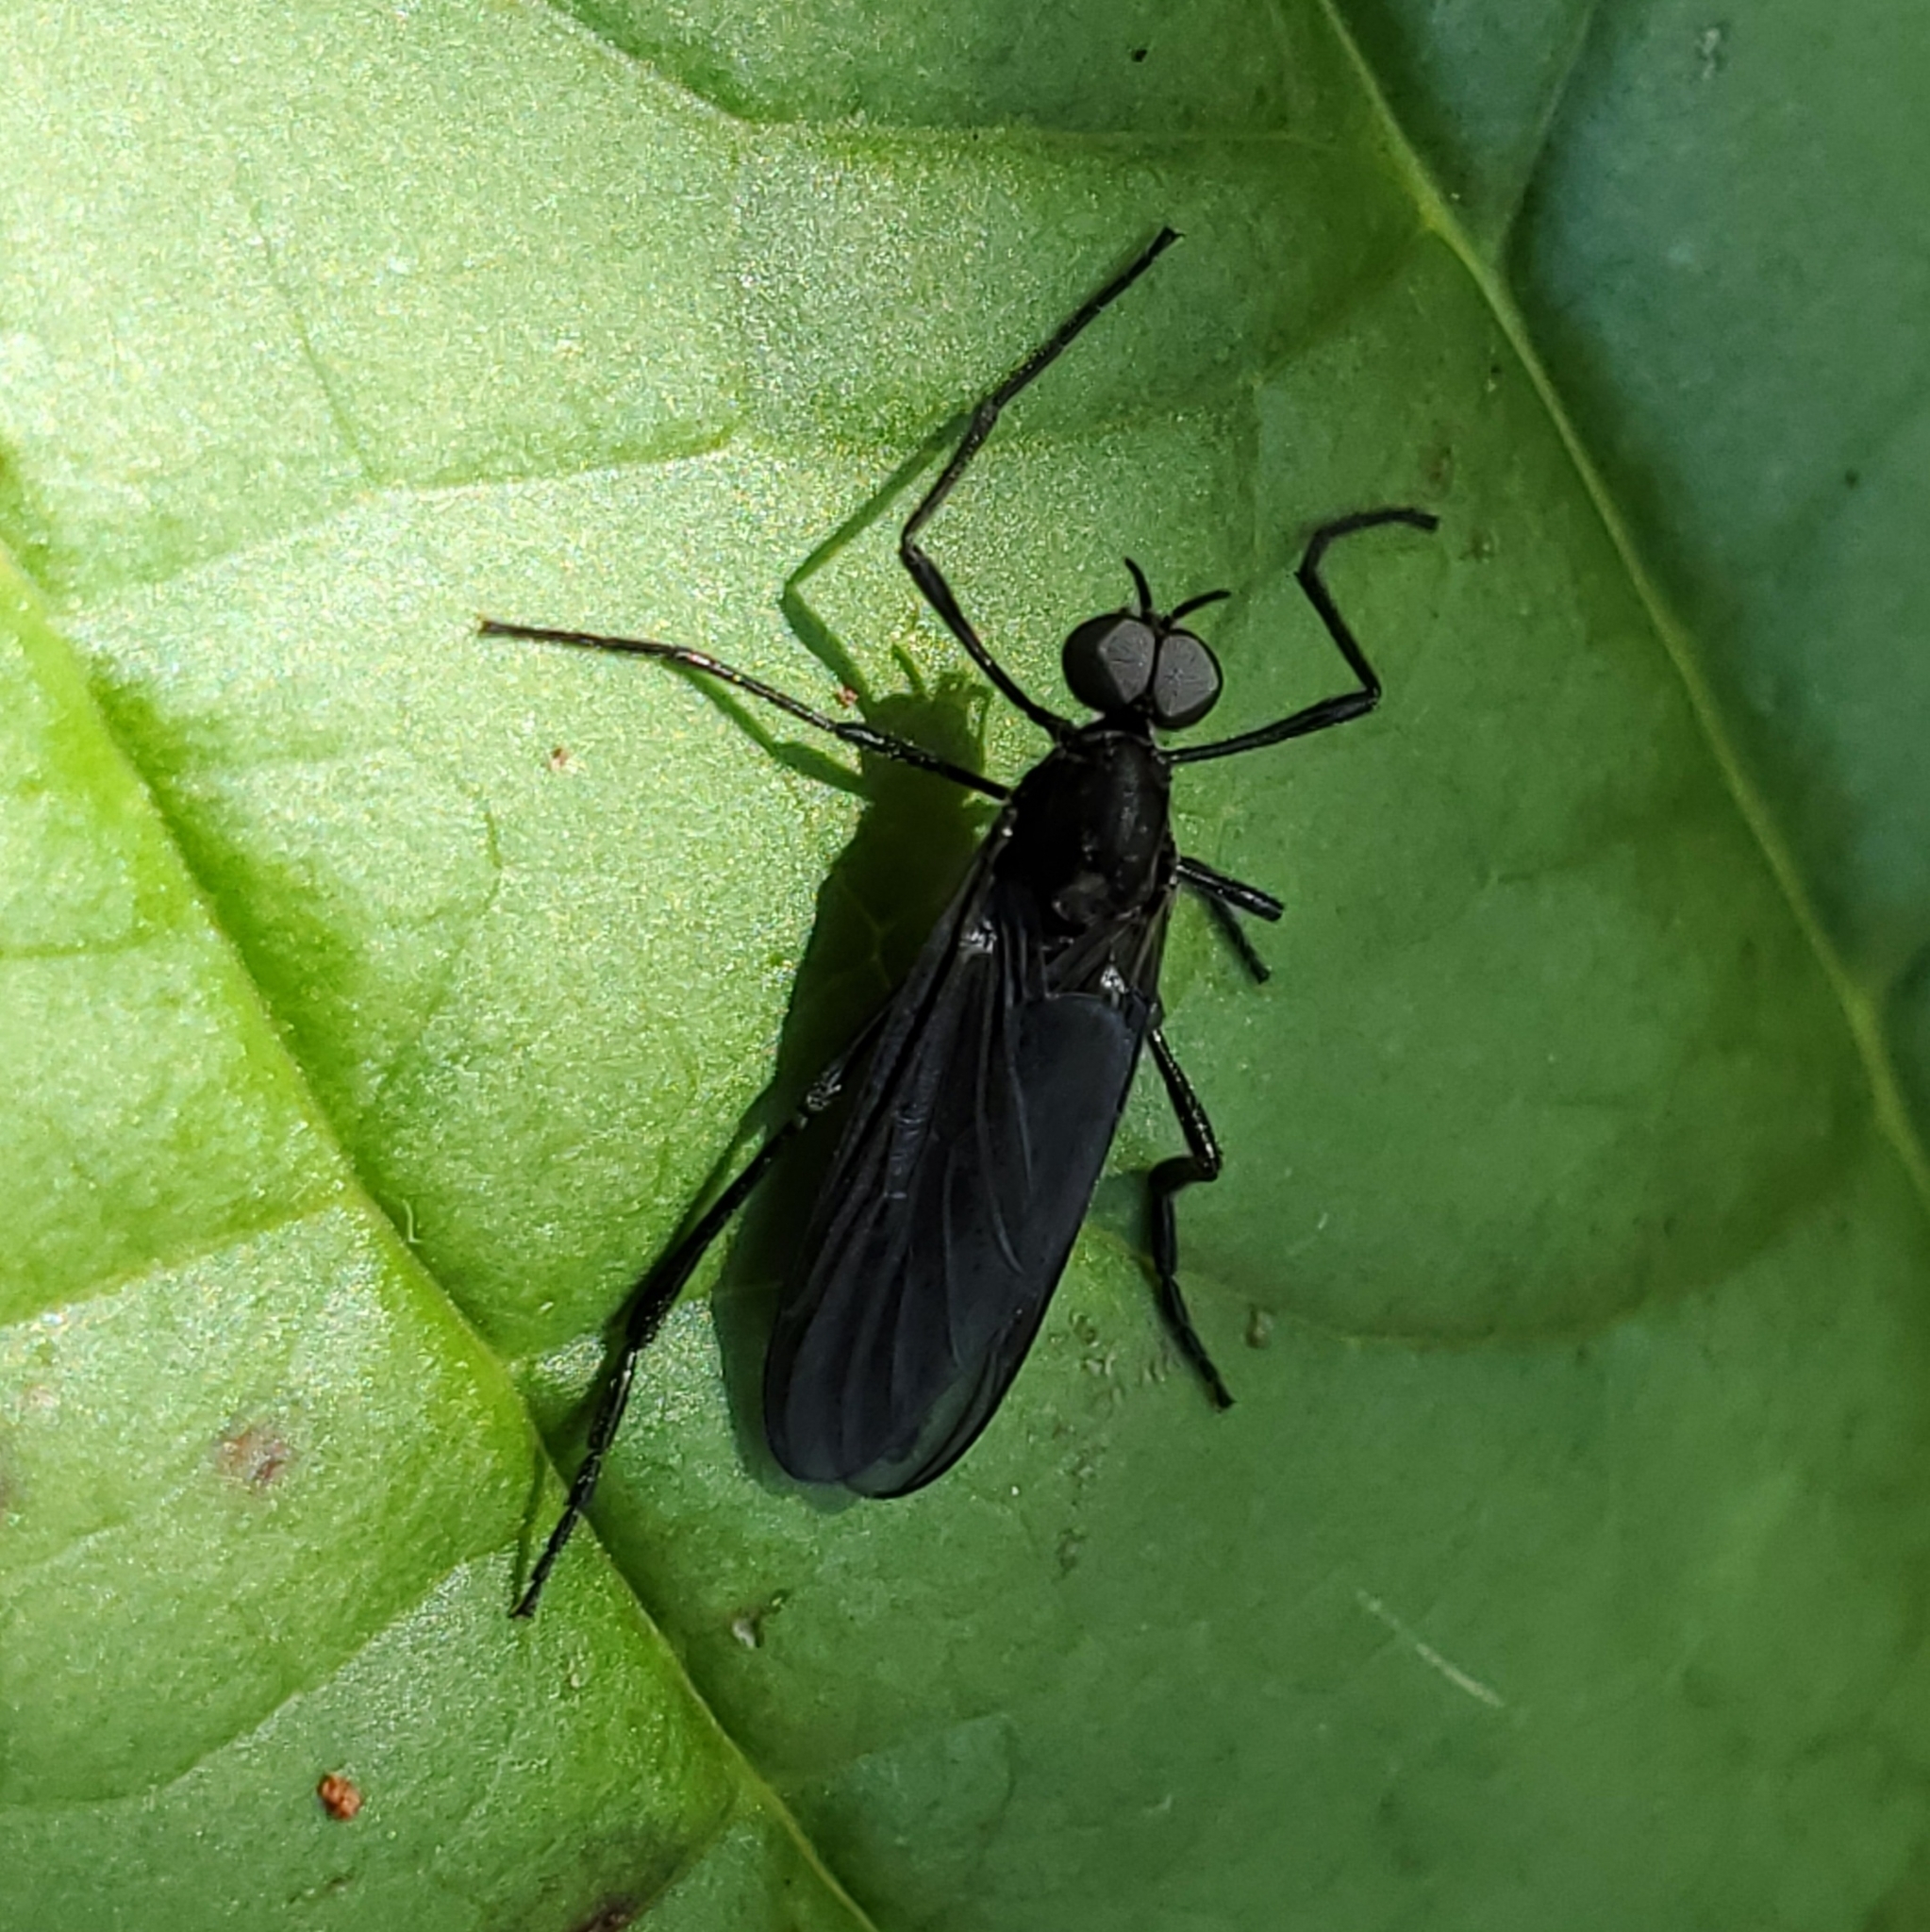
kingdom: Animalia
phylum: Arthropoda
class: Insecta
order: Diptera
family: Bibionidae
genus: Penthetria
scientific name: Penthetria heteroptera
